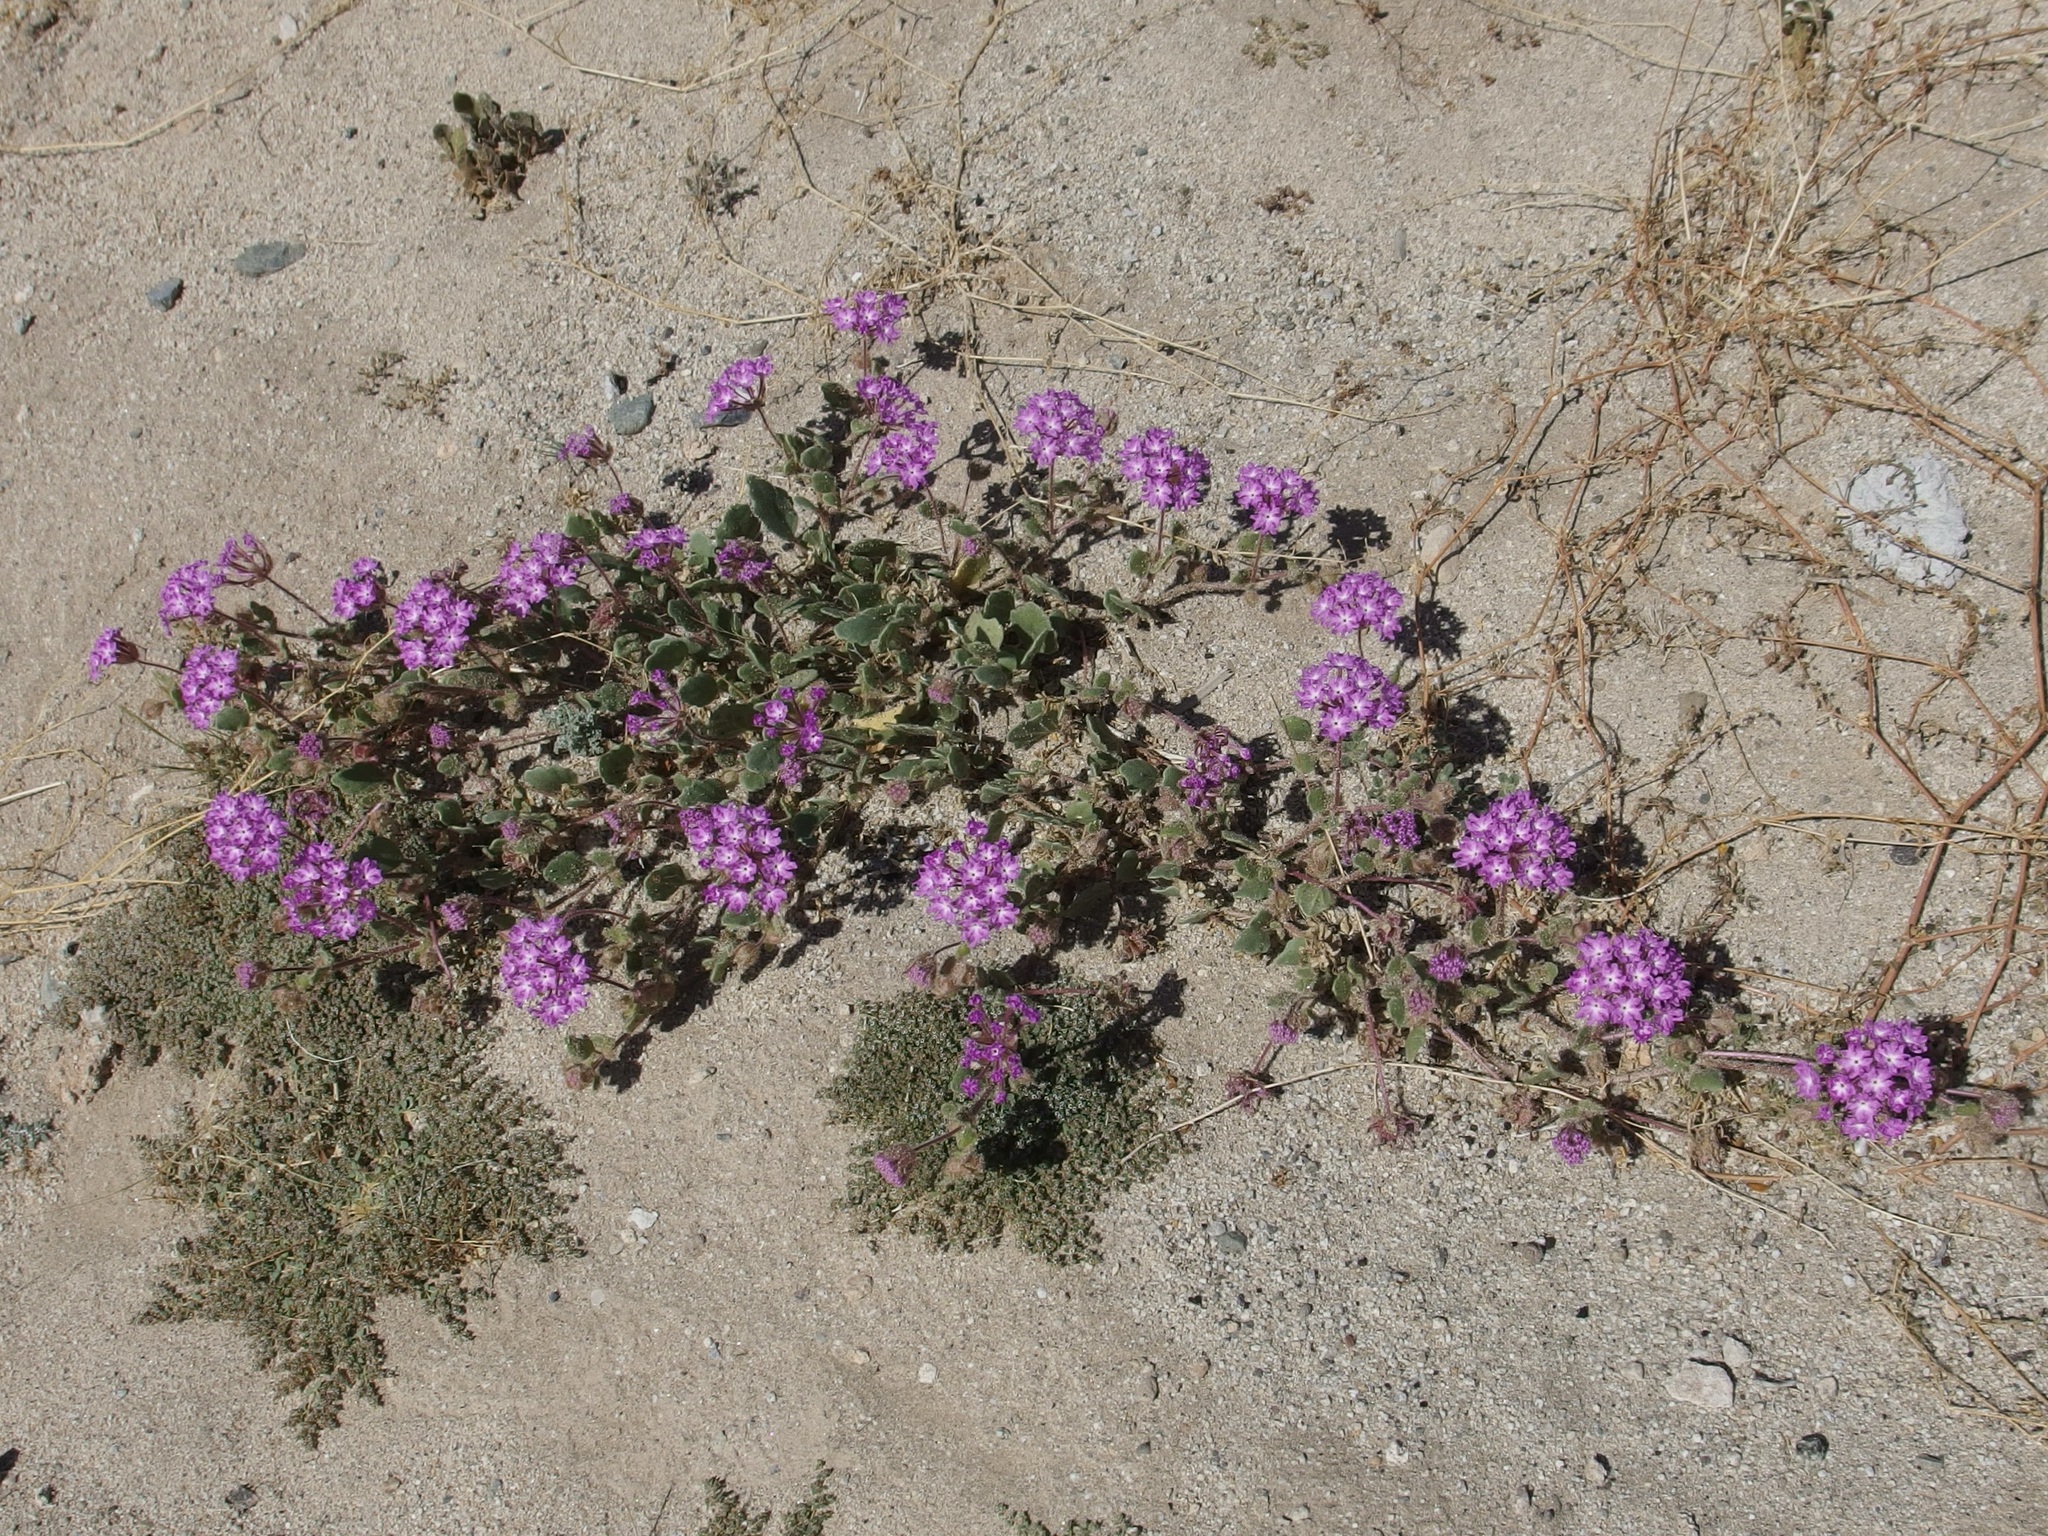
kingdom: Plantae
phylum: Tracheophyta
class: Magnoliopsida
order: Caryophyllales
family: Nyctaginaceae
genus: Abronia
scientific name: Abronia villosa
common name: Desert sand-verbena
